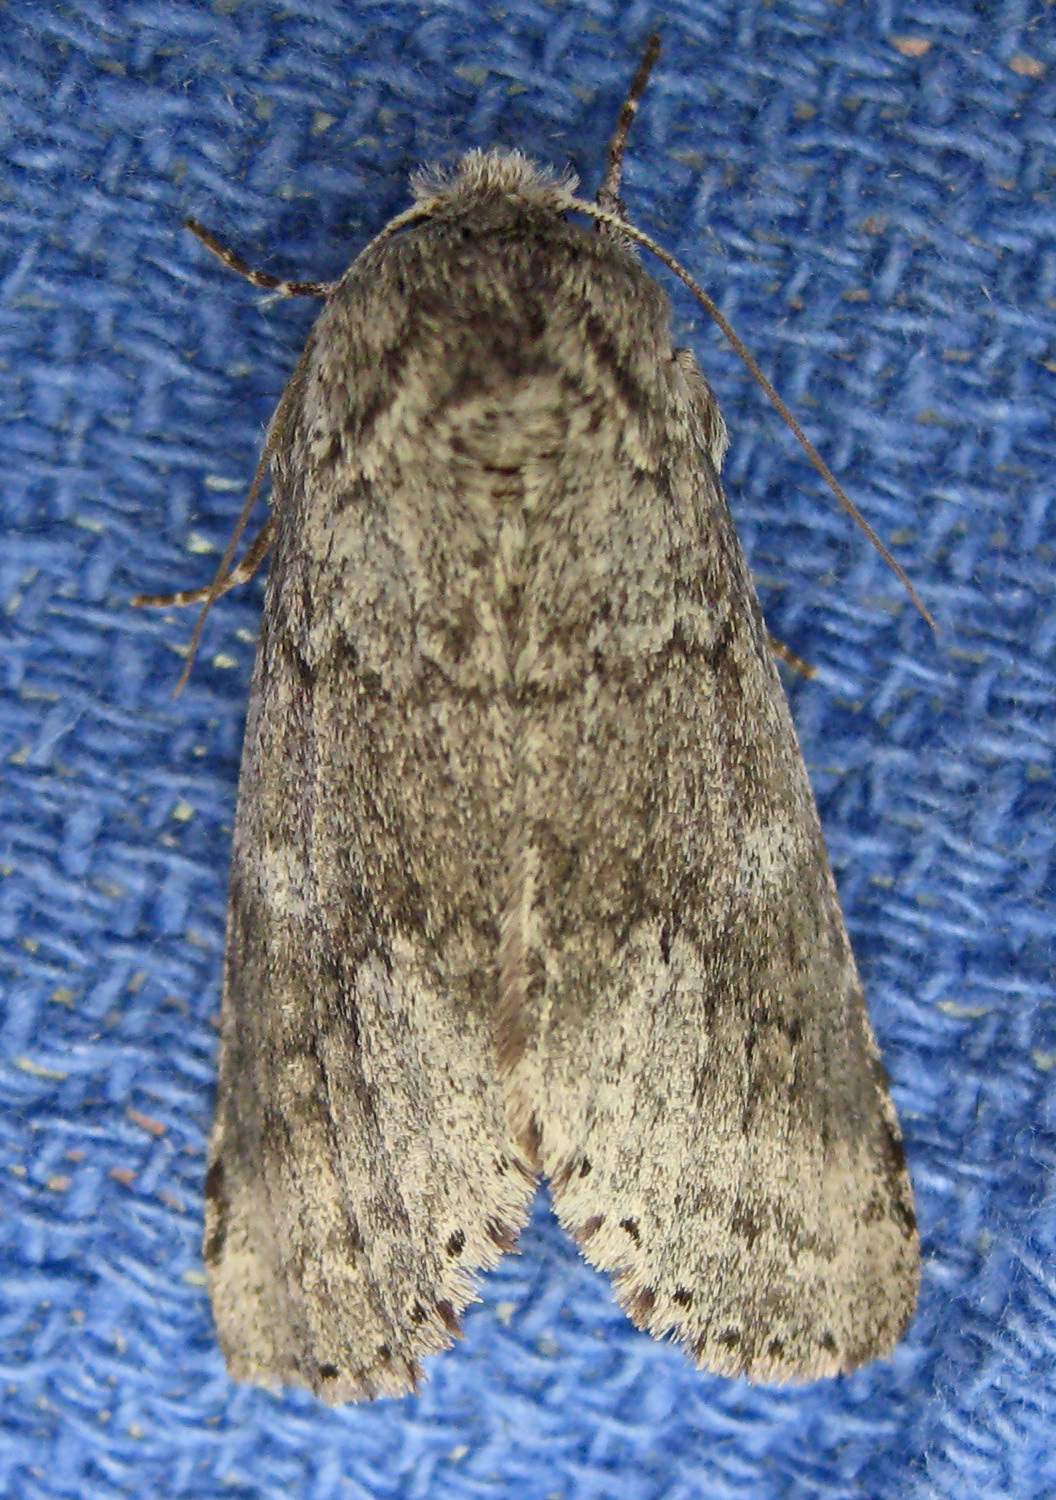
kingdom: Animalia
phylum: Arthropoda
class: Insecta
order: Lepidoptera
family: Notodontidae
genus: Lochmaeus
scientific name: Lochmaeus manteo
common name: Variable oakleaf caterpillar moth
